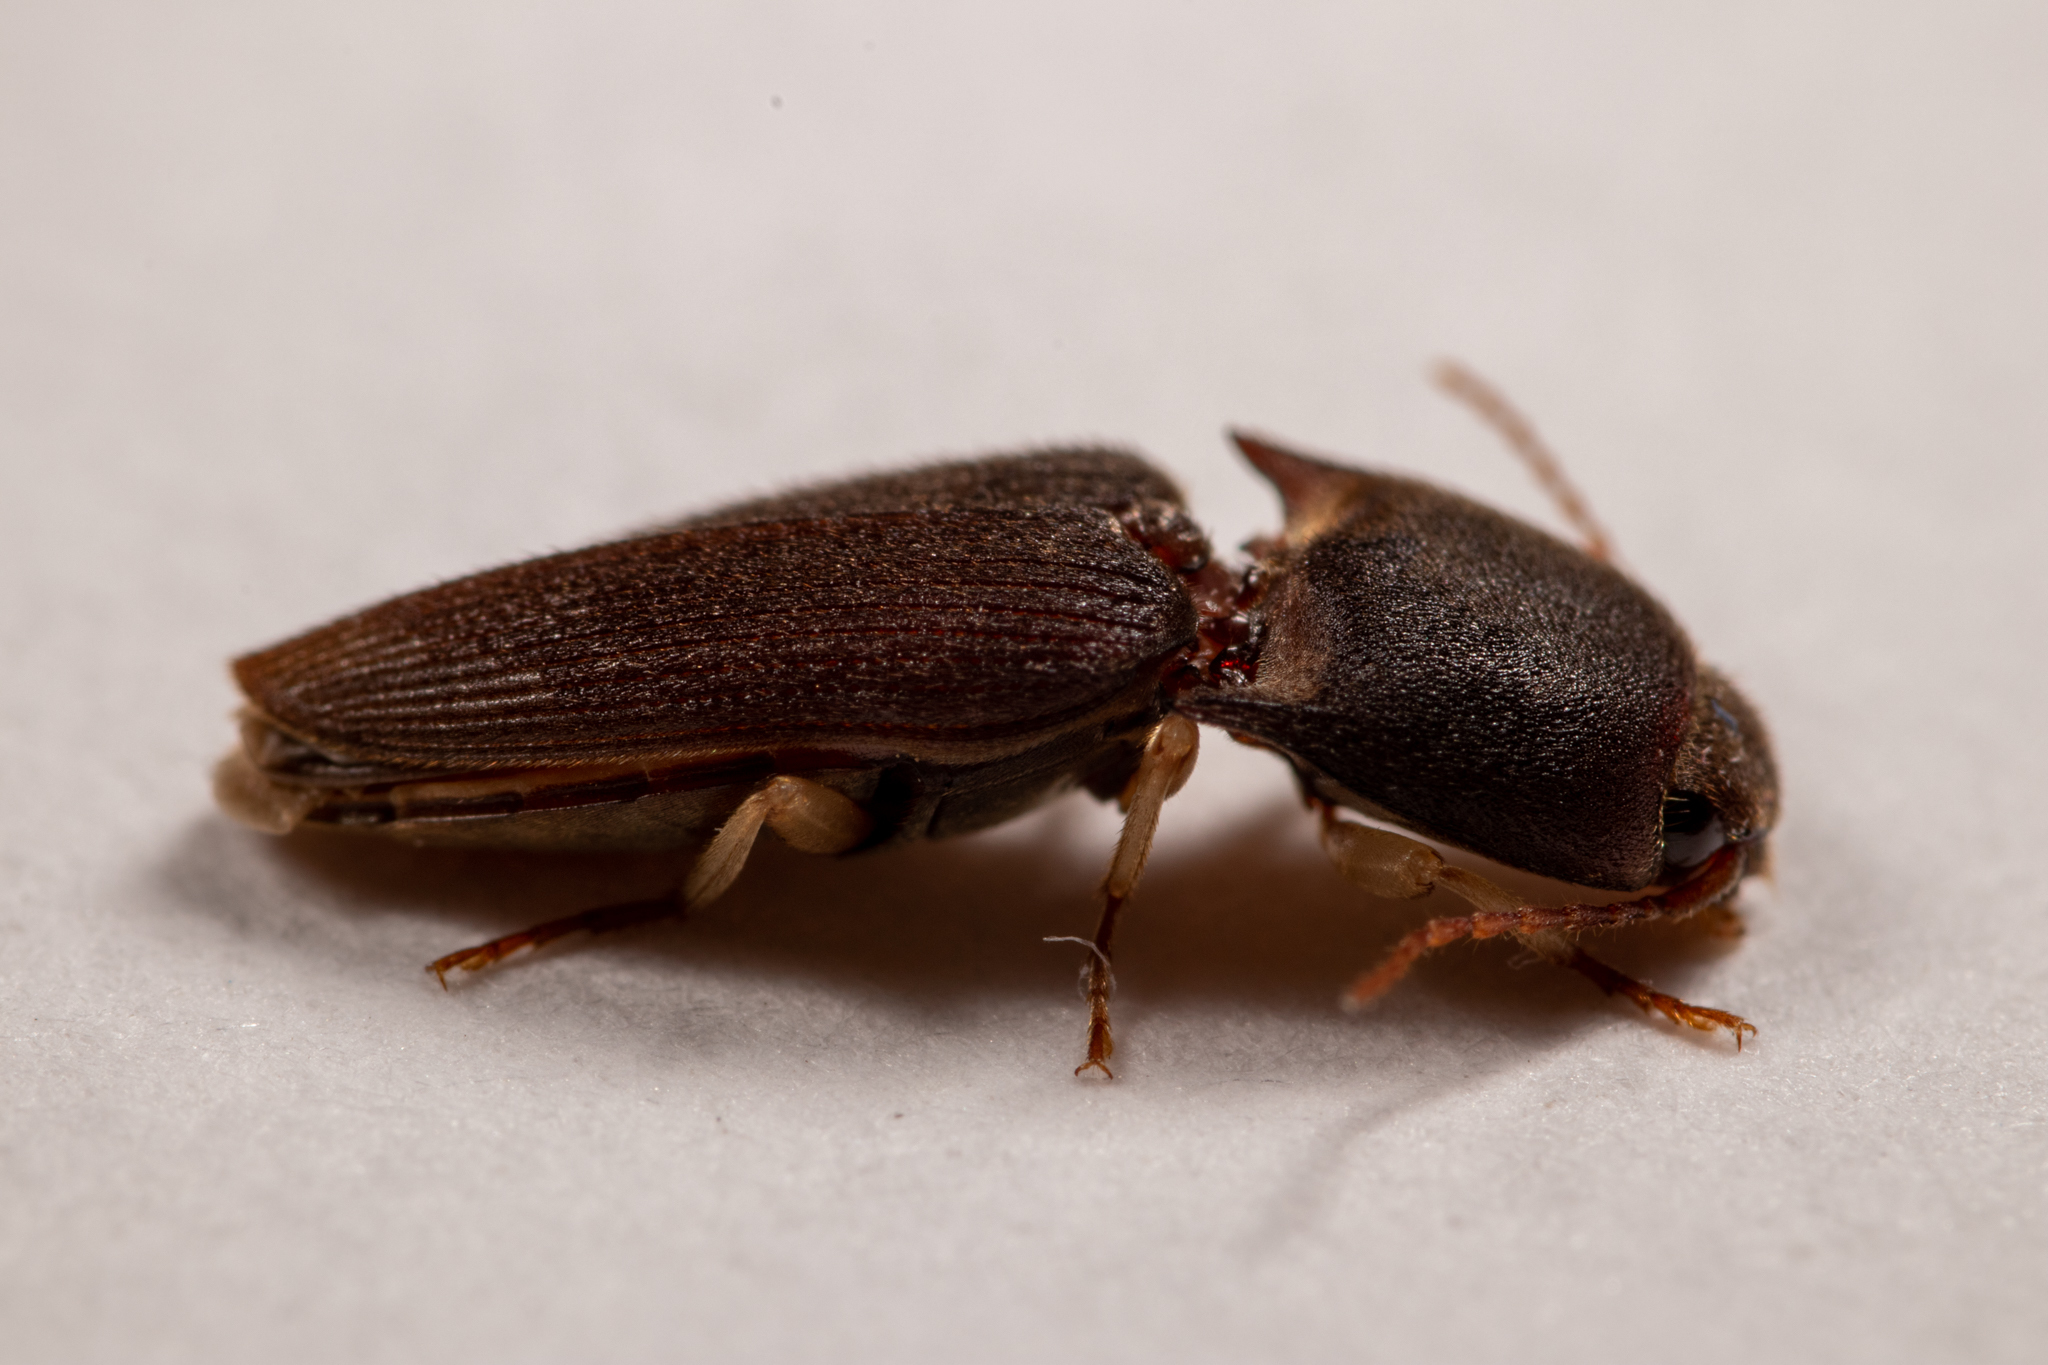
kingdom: Animalia
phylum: Arthropoda
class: Insecta
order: Coleoptera
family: Elateridae
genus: Heteroderes
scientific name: Heteroderes amplicollis
